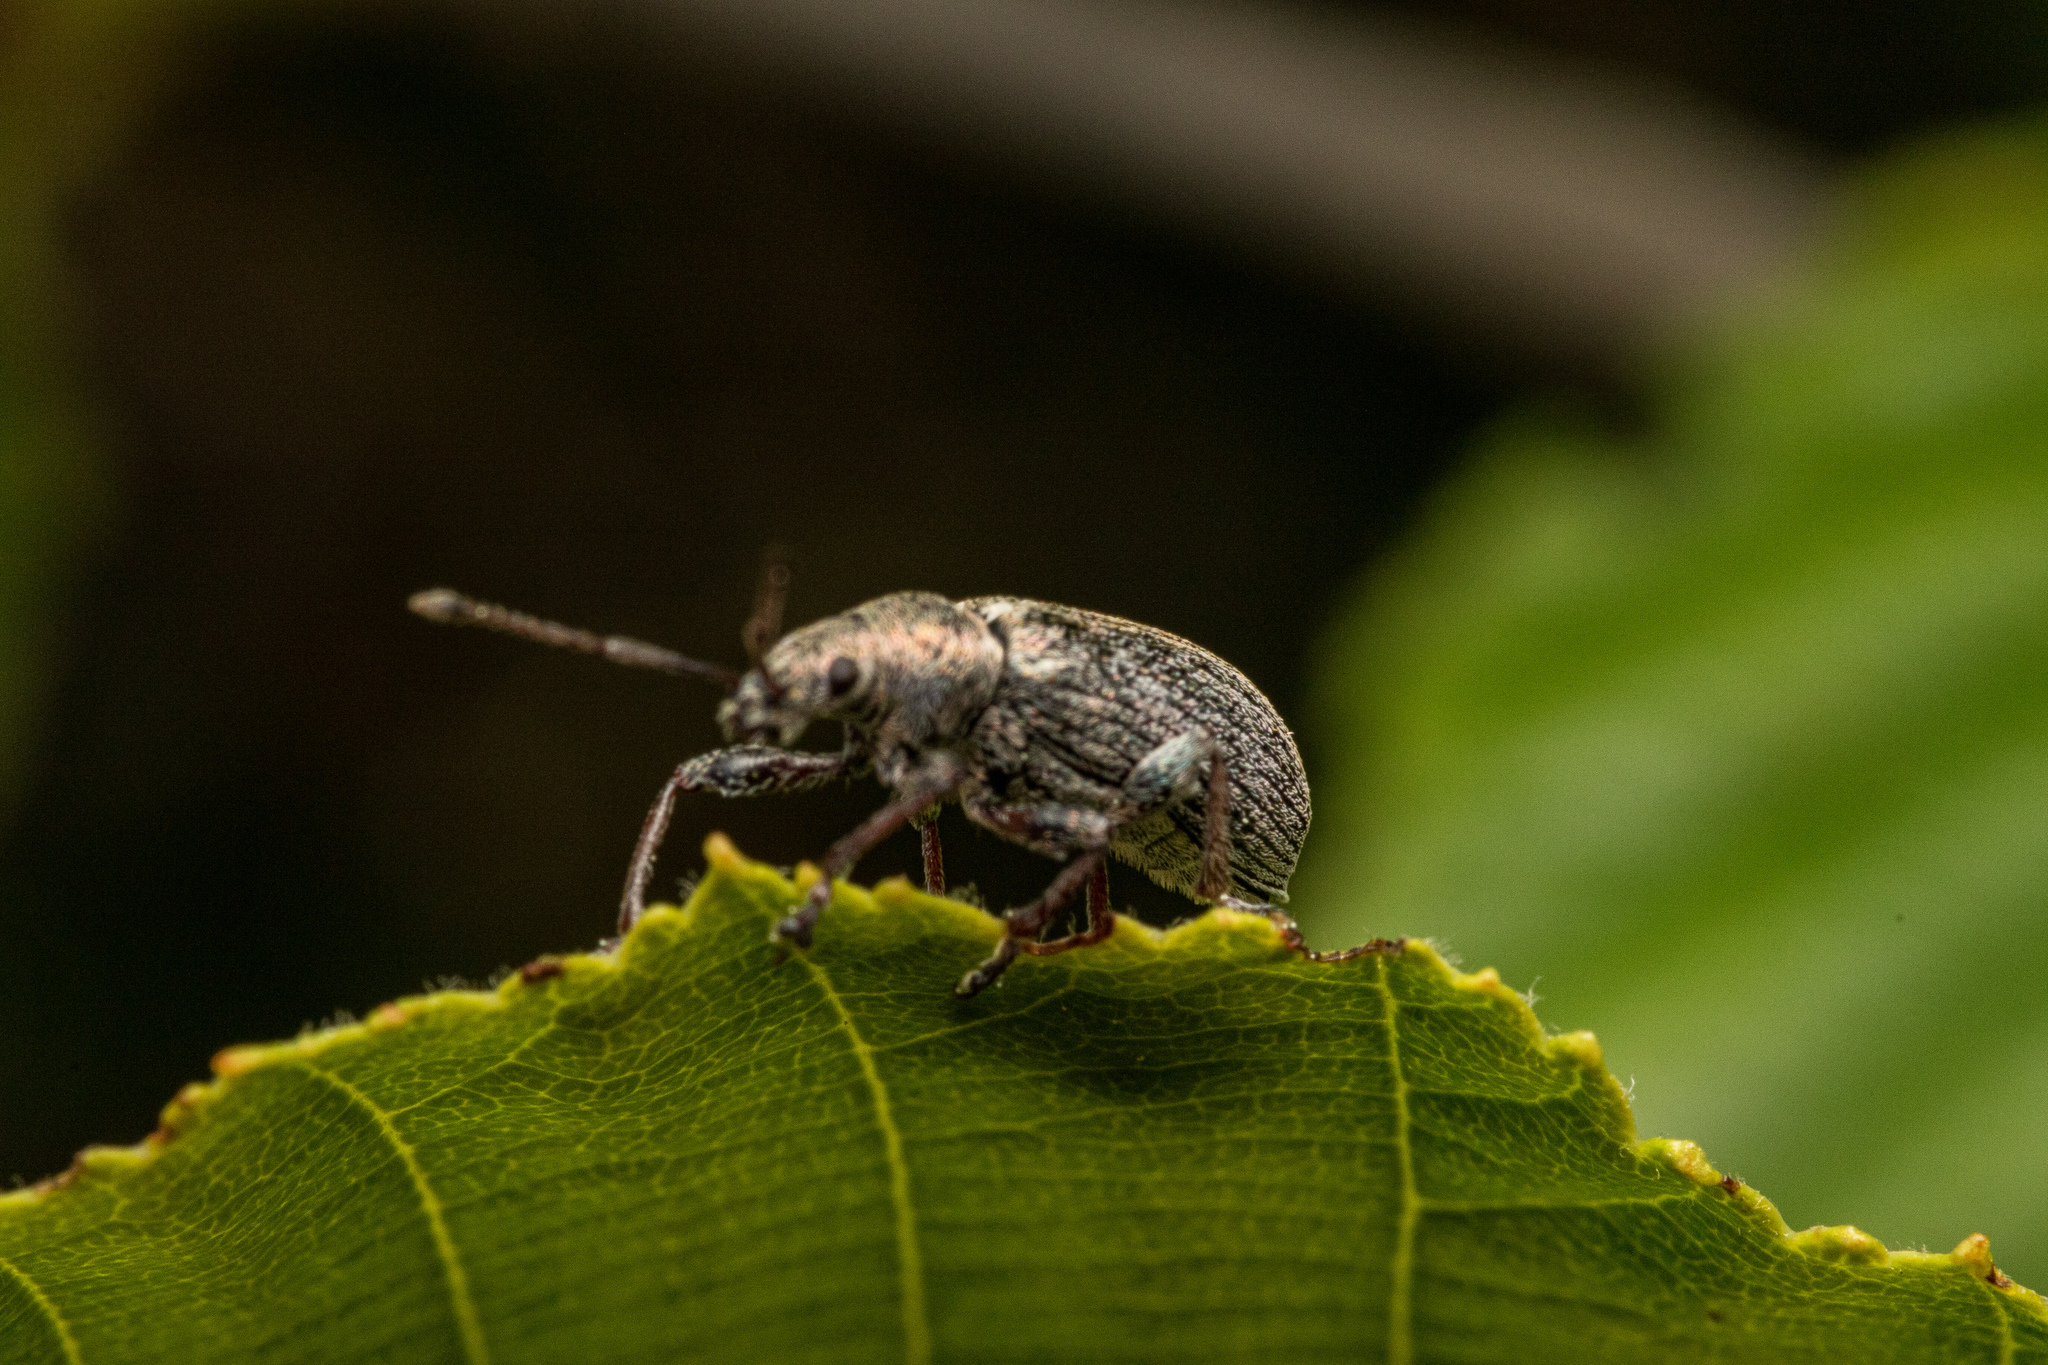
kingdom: Animalia
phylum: Arthropoda
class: Insecta
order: Coleoptera
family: Curculionidae
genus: Phyllobius
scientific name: Phyllobius pyri
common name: Common leaf weevil
